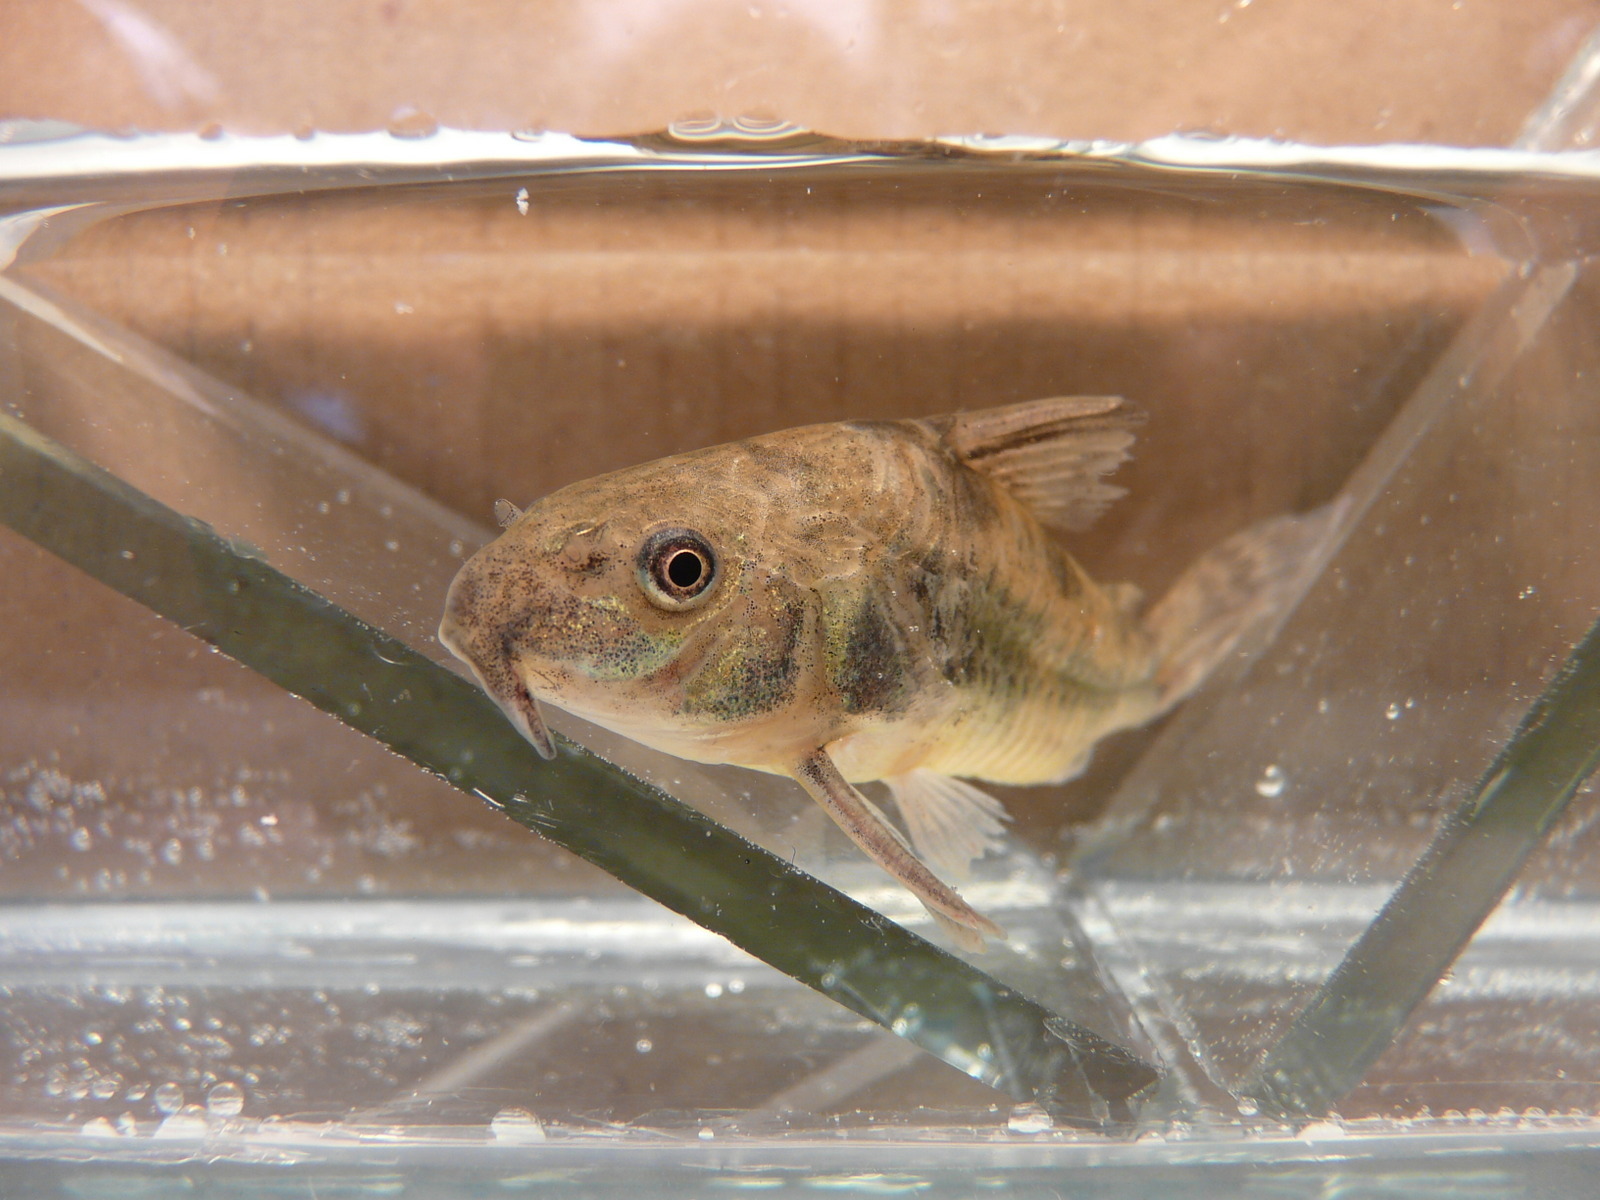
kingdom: Animalia
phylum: Chordata
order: Siluriformes
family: Callichthyidae
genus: Corydoras
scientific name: Corydoras paleatus
